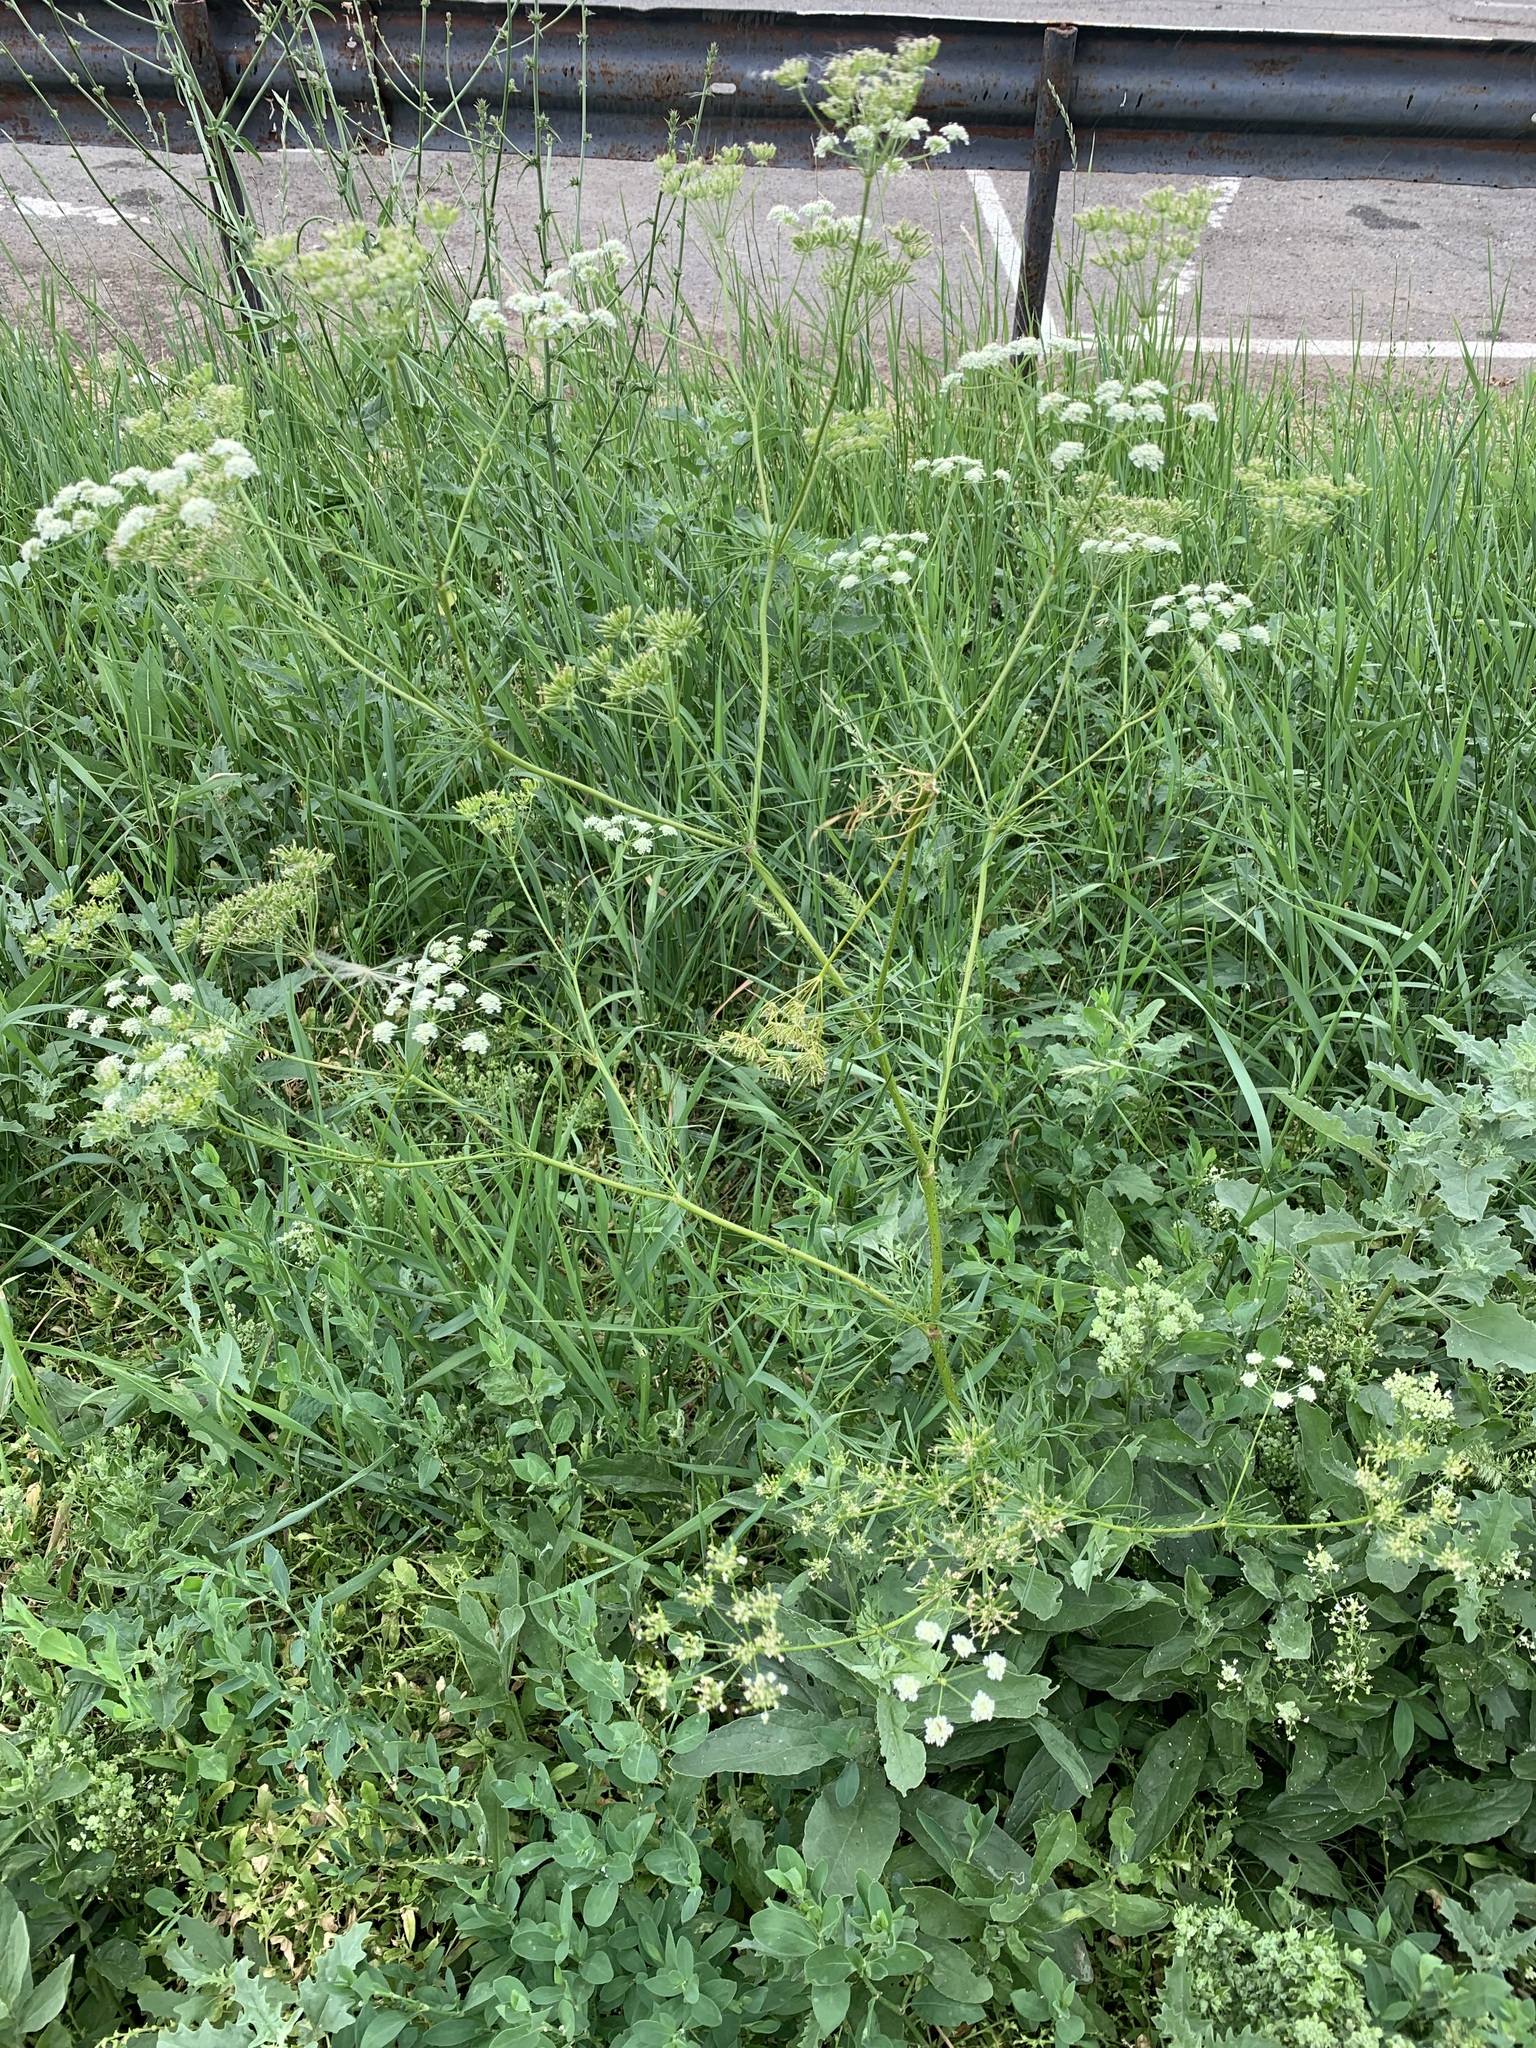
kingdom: Plantae
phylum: Tracheophyta
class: Magnoliopsida
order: Apiales
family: Apiaceae
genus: Chaerophyllum
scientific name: Chaerophyllum prescottii
